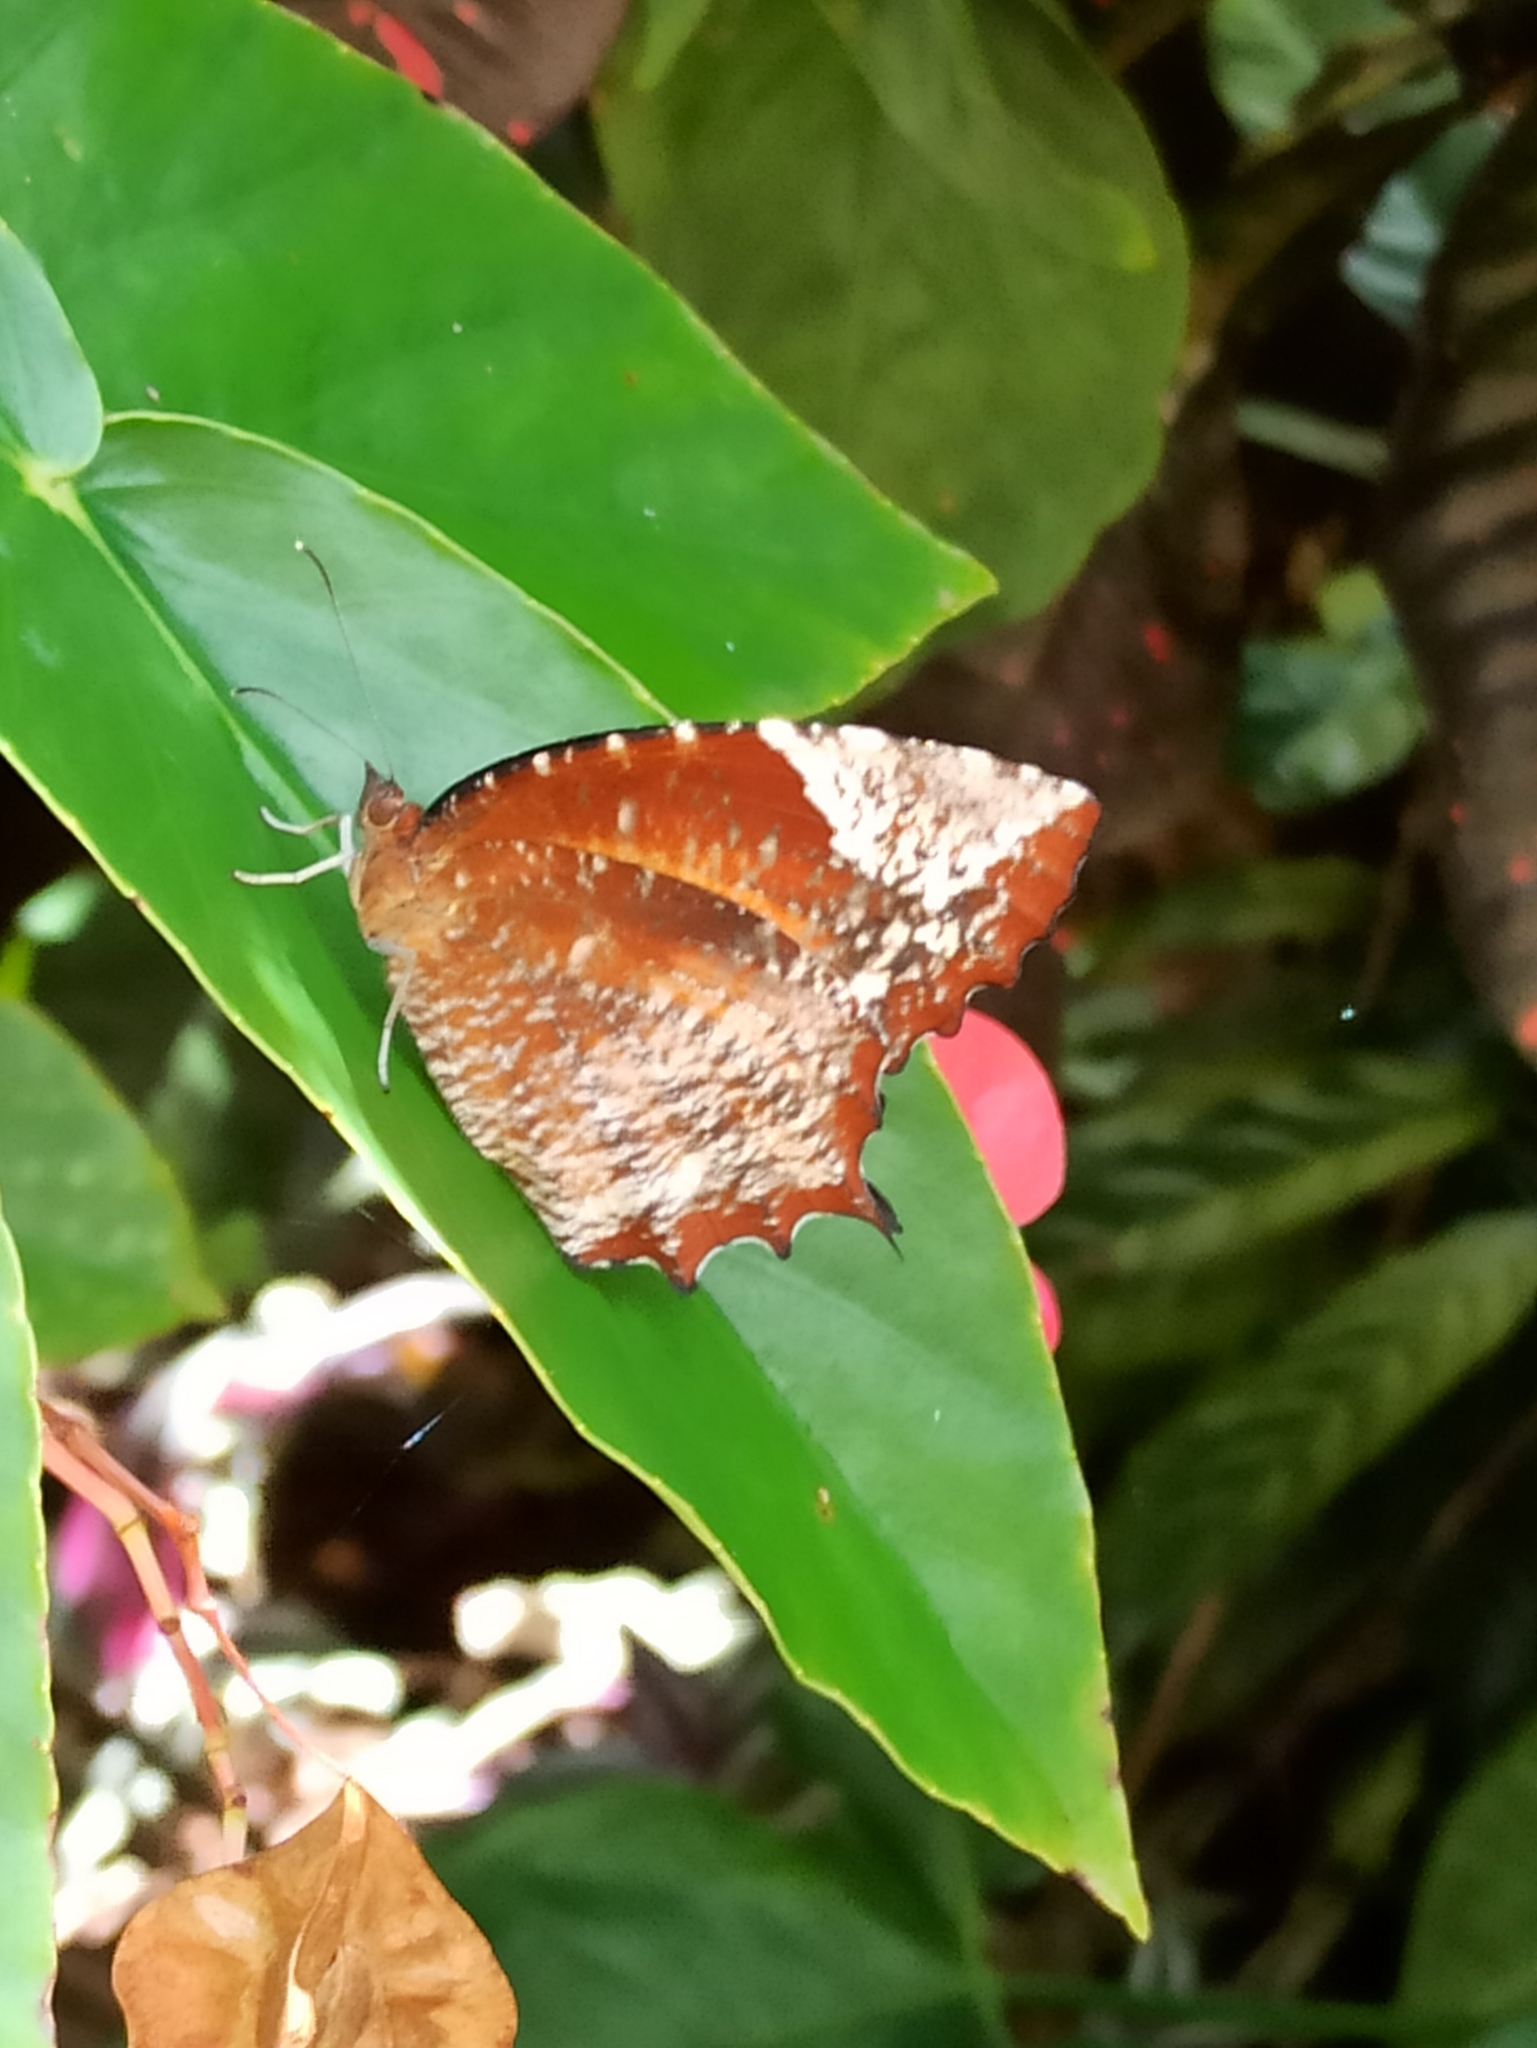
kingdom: Animalia
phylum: Arthropoda
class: Insecta
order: Lepidoptera
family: Nymphalidae
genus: Elymnias
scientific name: Elymnias caudata
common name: Tailed palmfly
